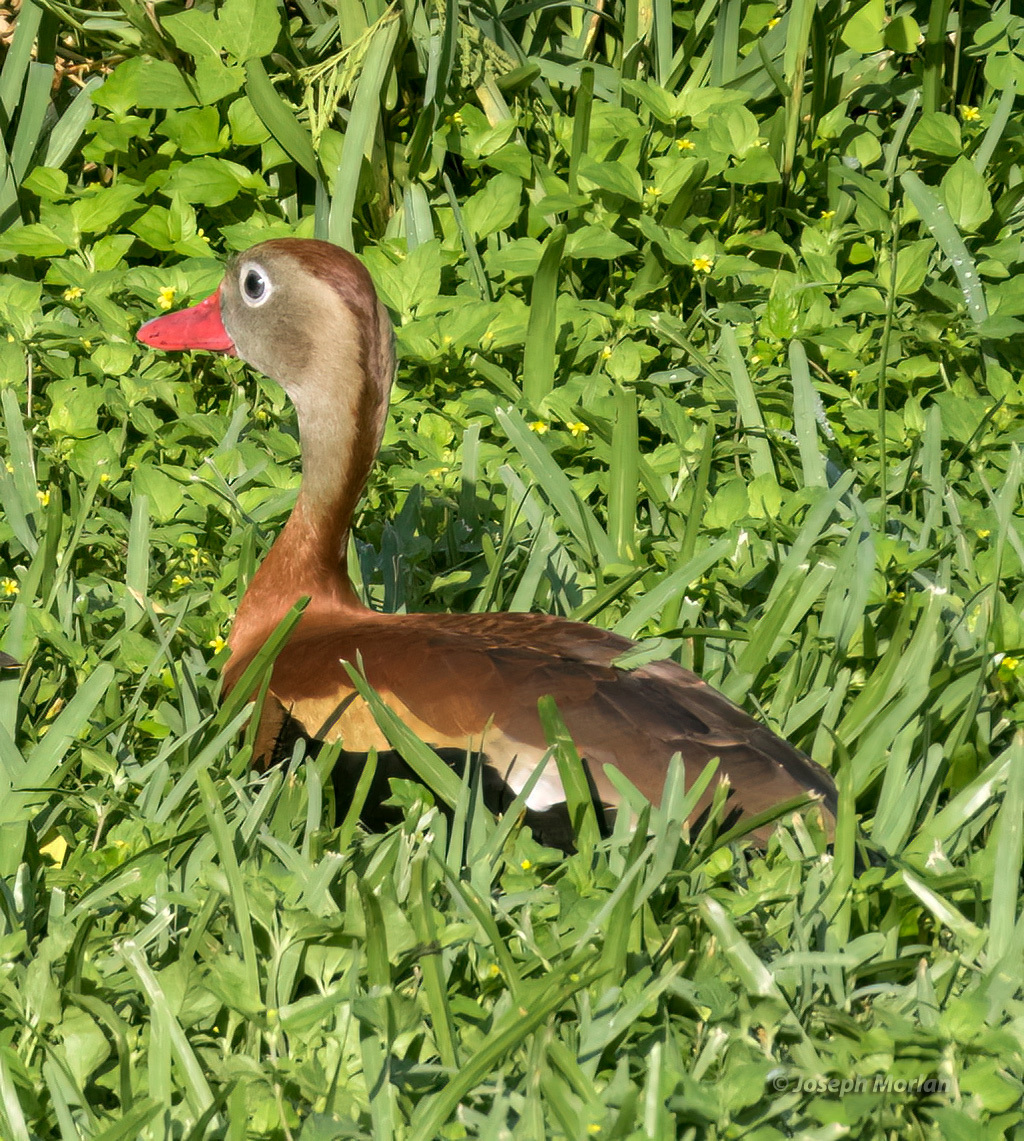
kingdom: Animalia
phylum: Chordata
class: Aves
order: Anseriformes
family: Anatidae
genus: Dendrocygna
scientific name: Dendrocygna autumnalis
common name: Black-bellied whistling duck
